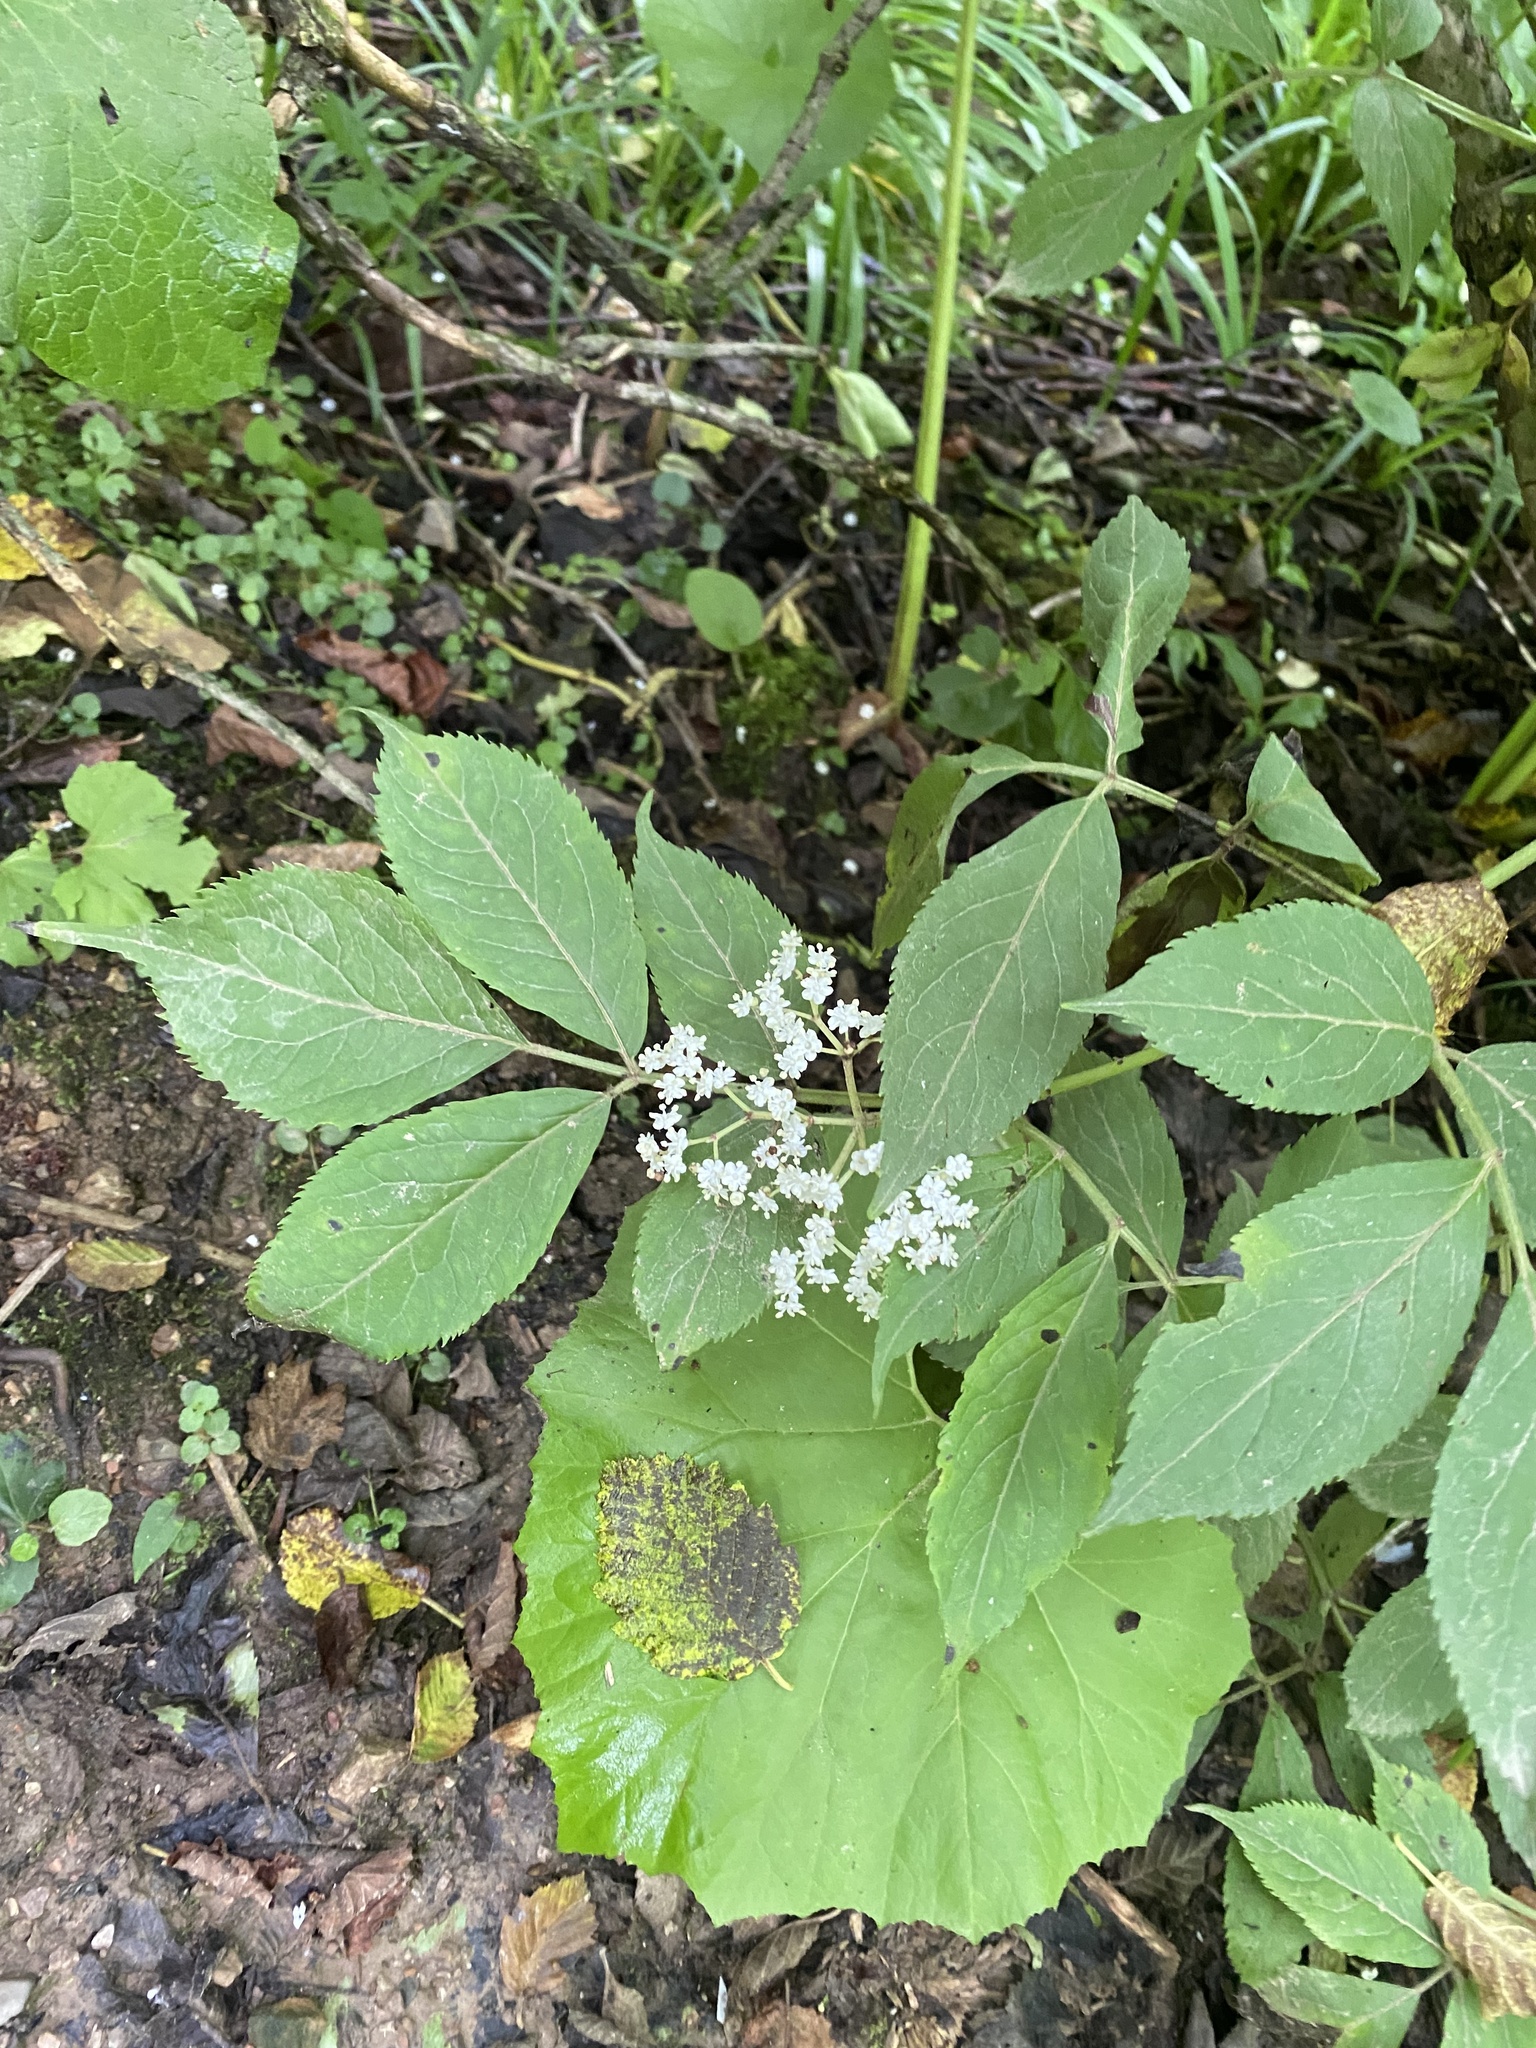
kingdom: Plantae
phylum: Tracheophyta
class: Magnoliopsida
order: Dipsacales
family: Viburnaceae
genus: Sambucus
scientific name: Sambucus nigra
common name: Elder
